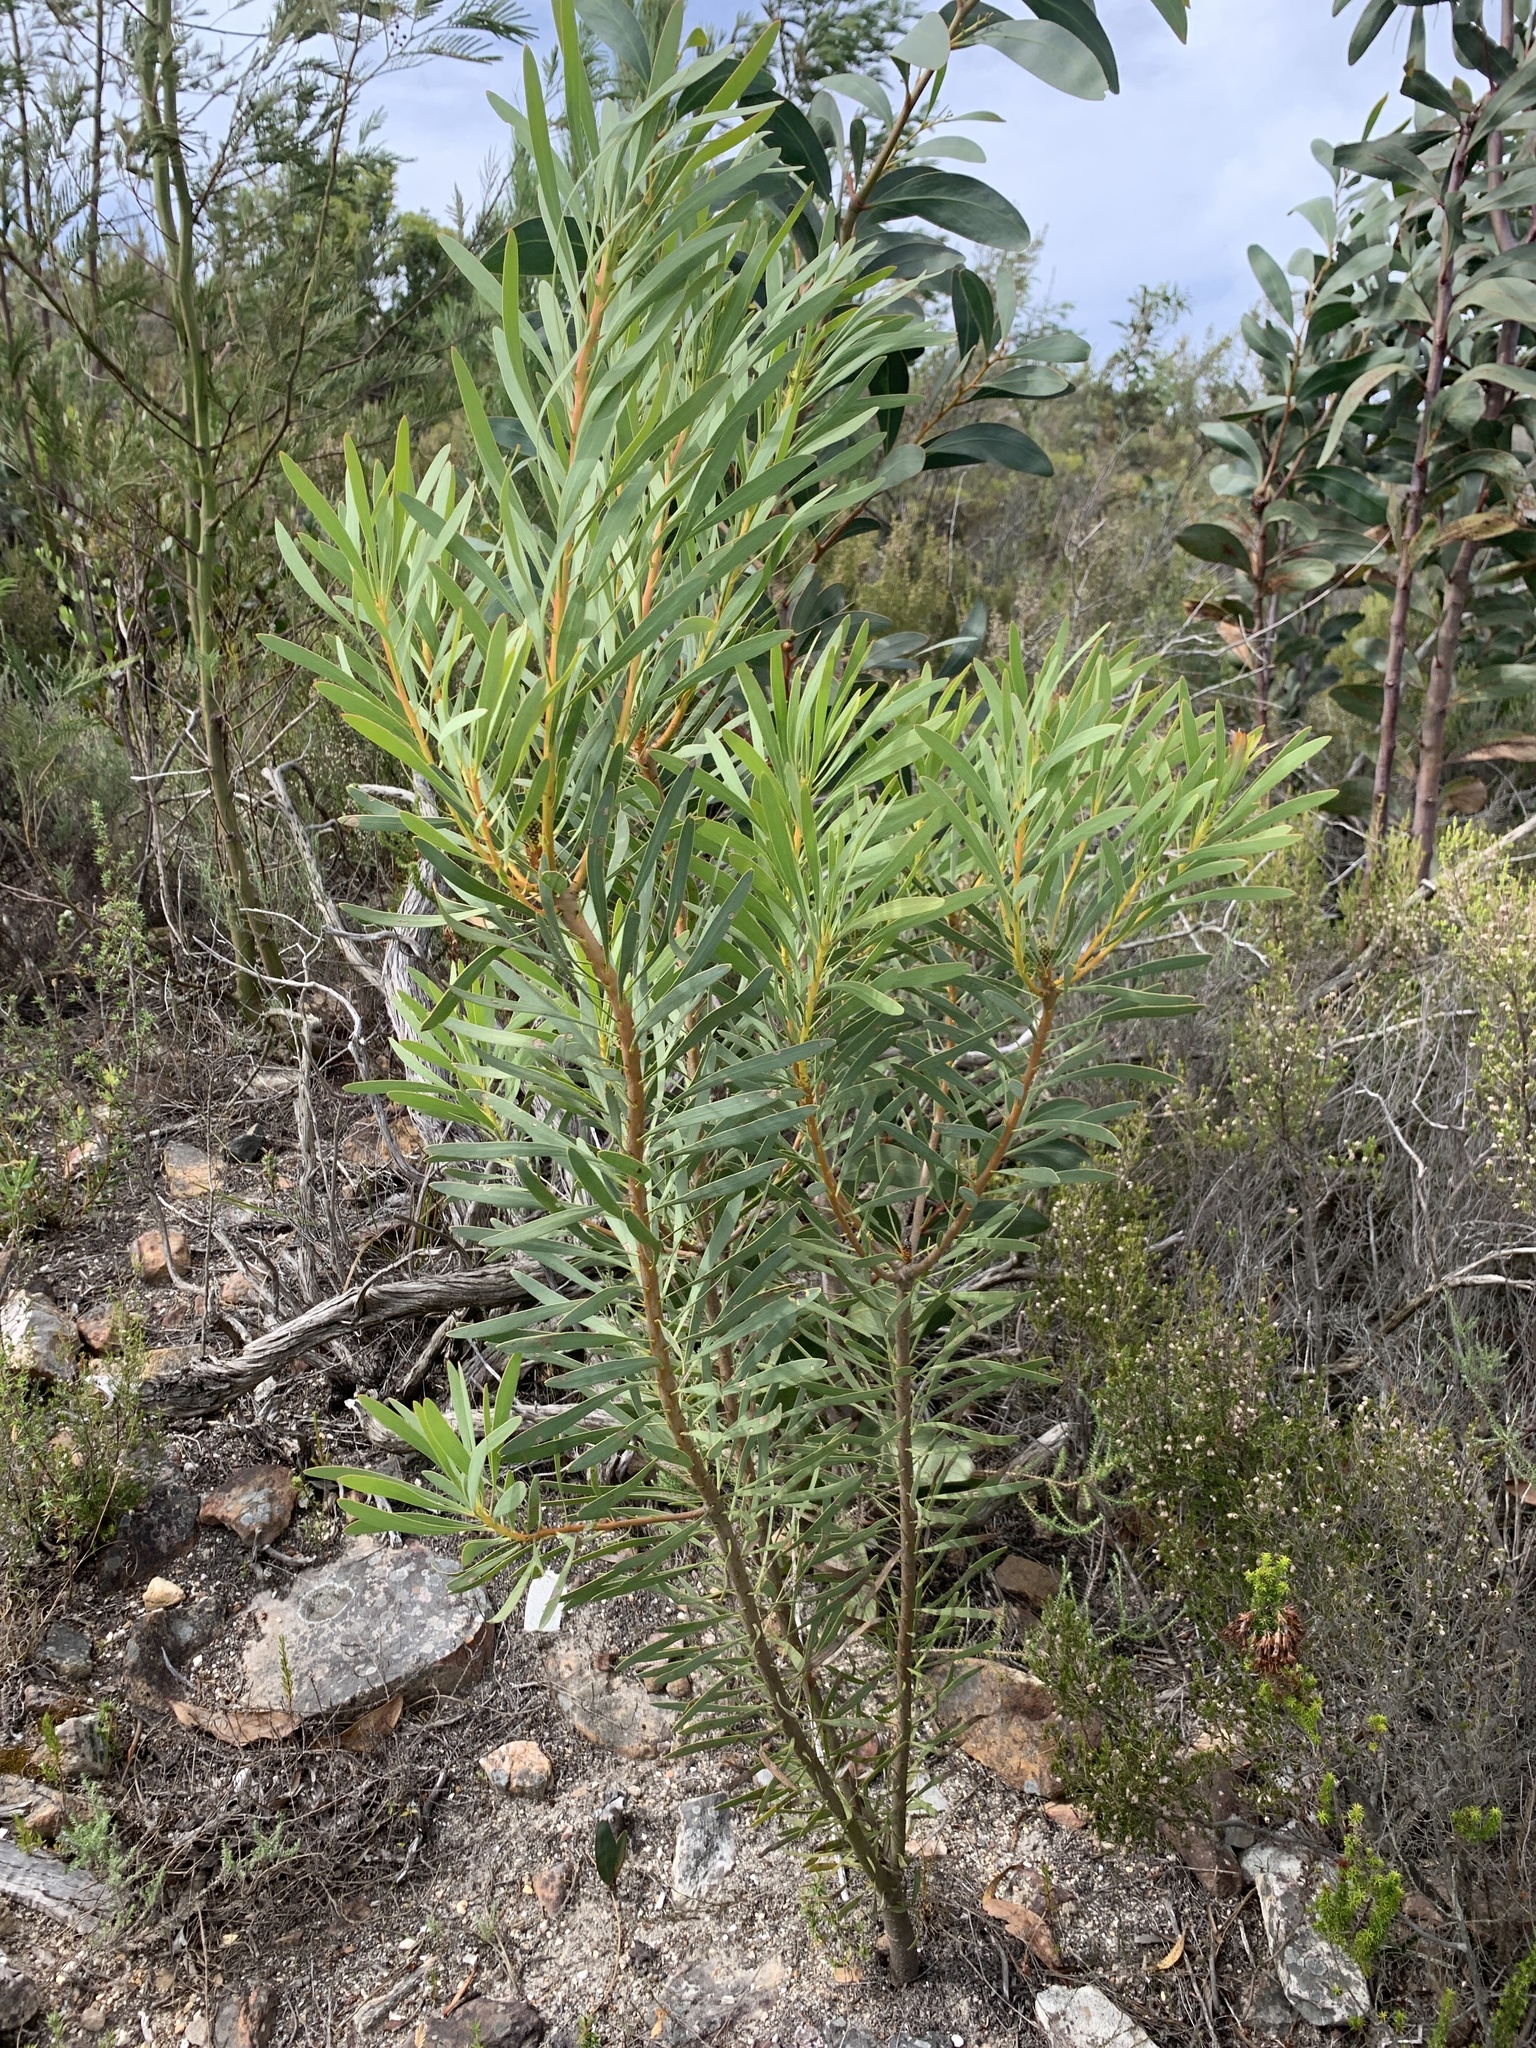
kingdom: Plantae
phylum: Tracheophyta
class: Magnoliopsida
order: Proteales
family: Proteaceae
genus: Protea
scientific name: Protea repens
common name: Sugarbush
